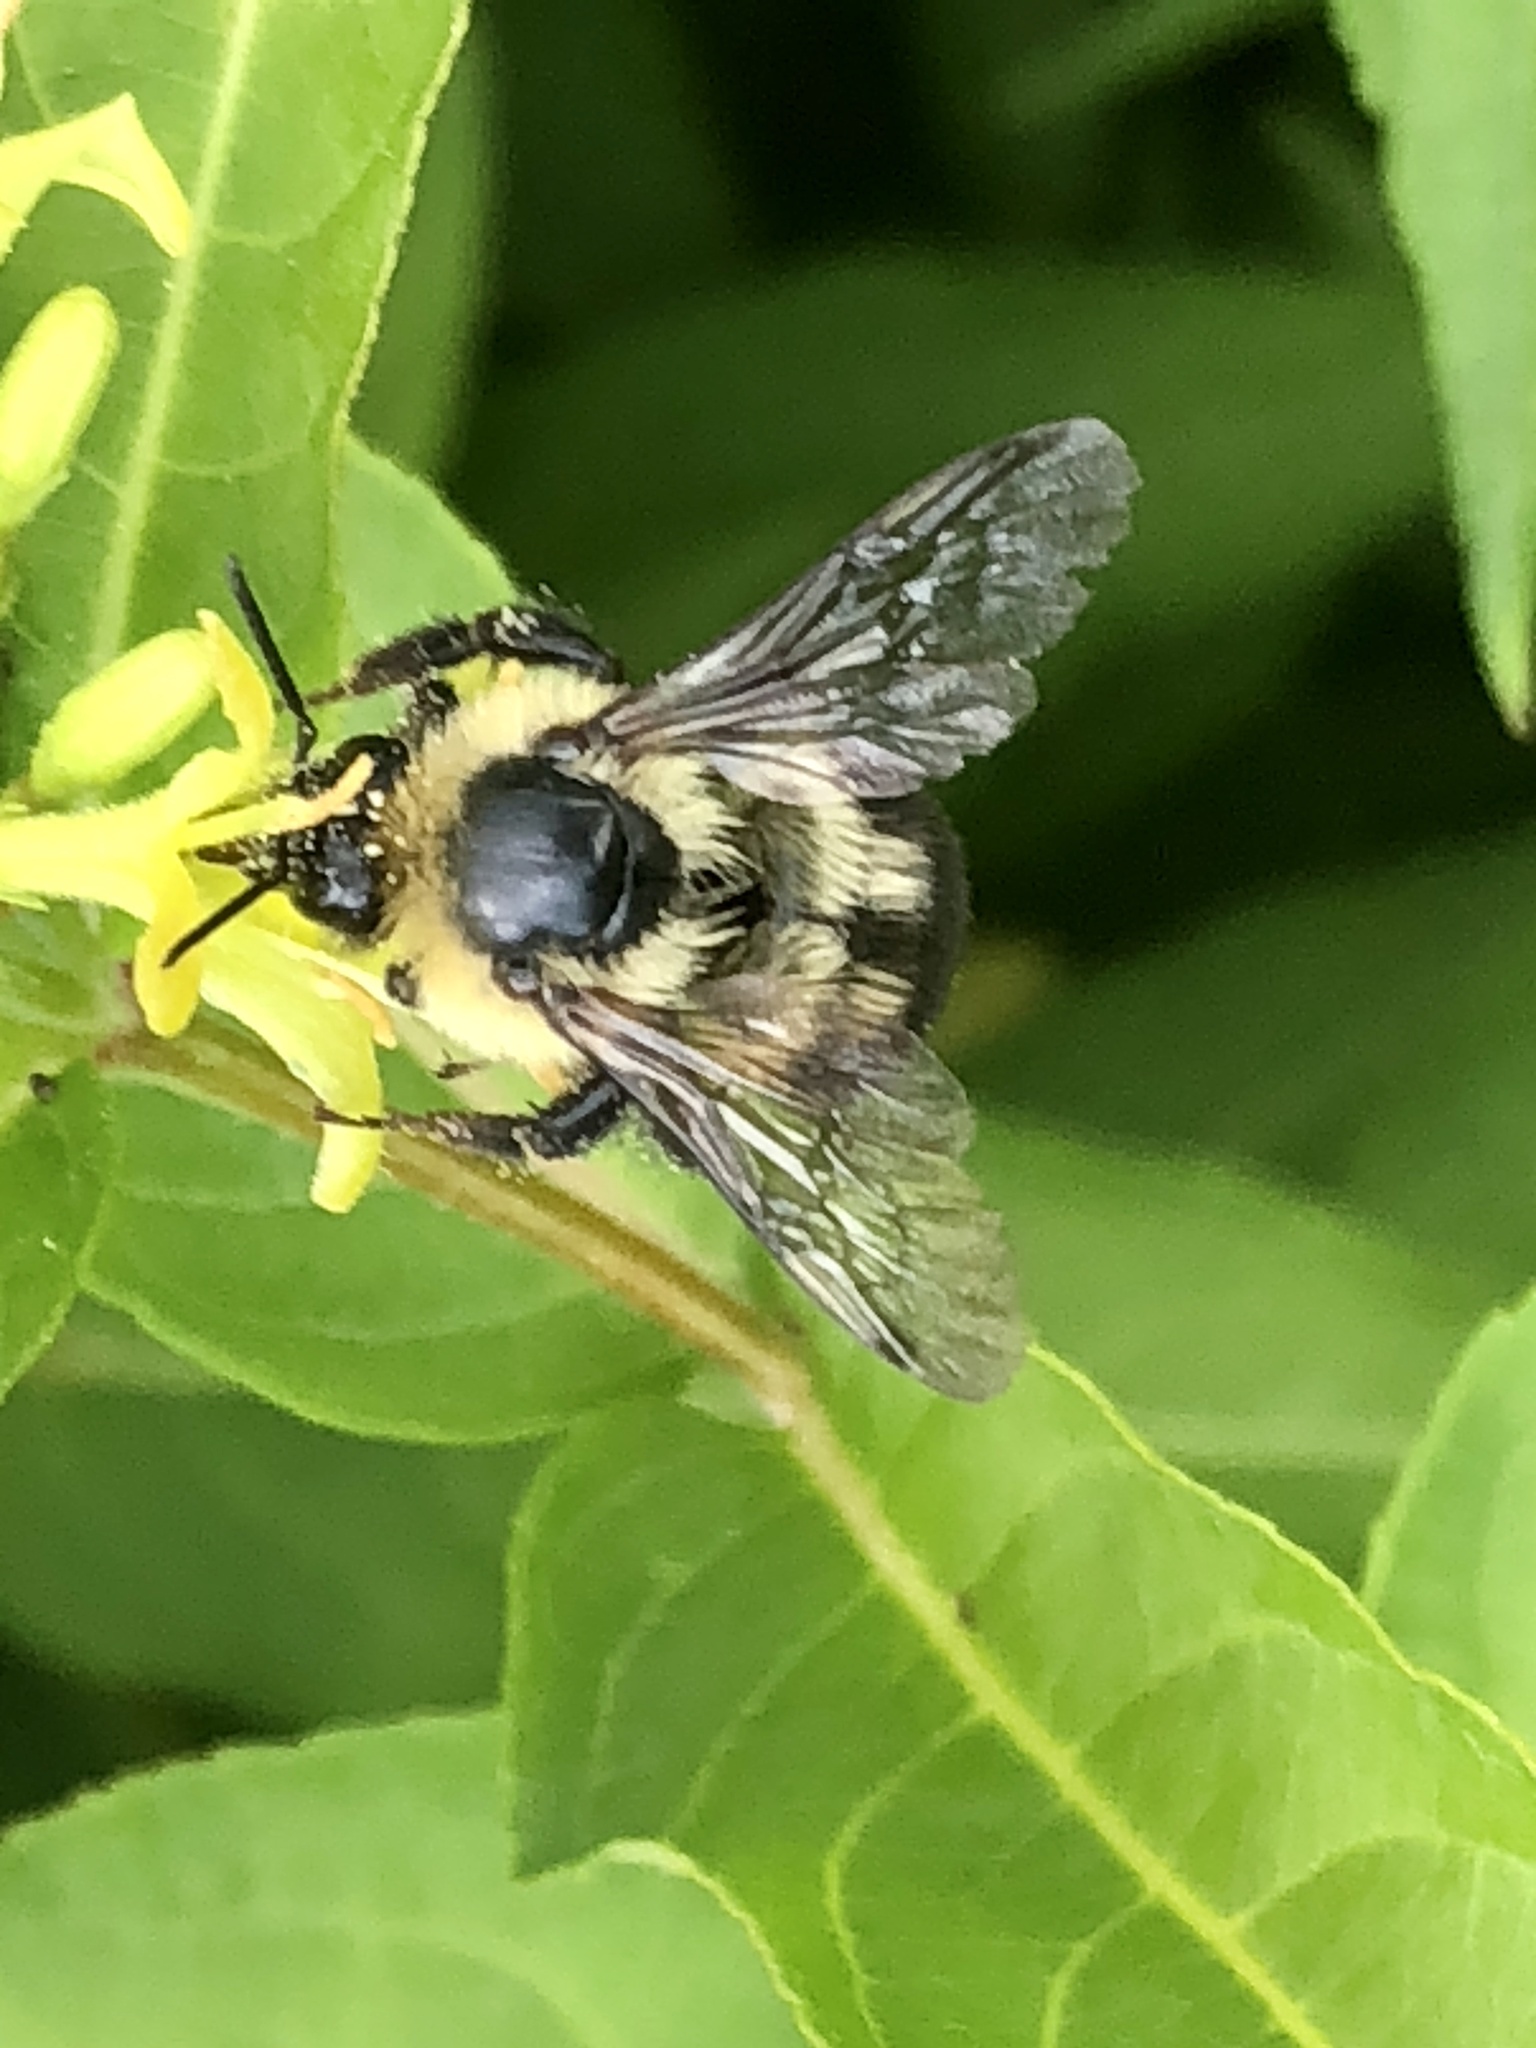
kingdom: Animalia
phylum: Arthropoda
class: Insecta
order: Hymenoptera
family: Apidae
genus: Bombus
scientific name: Bombus bimaculatus
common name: Two-spotted bumble bee
